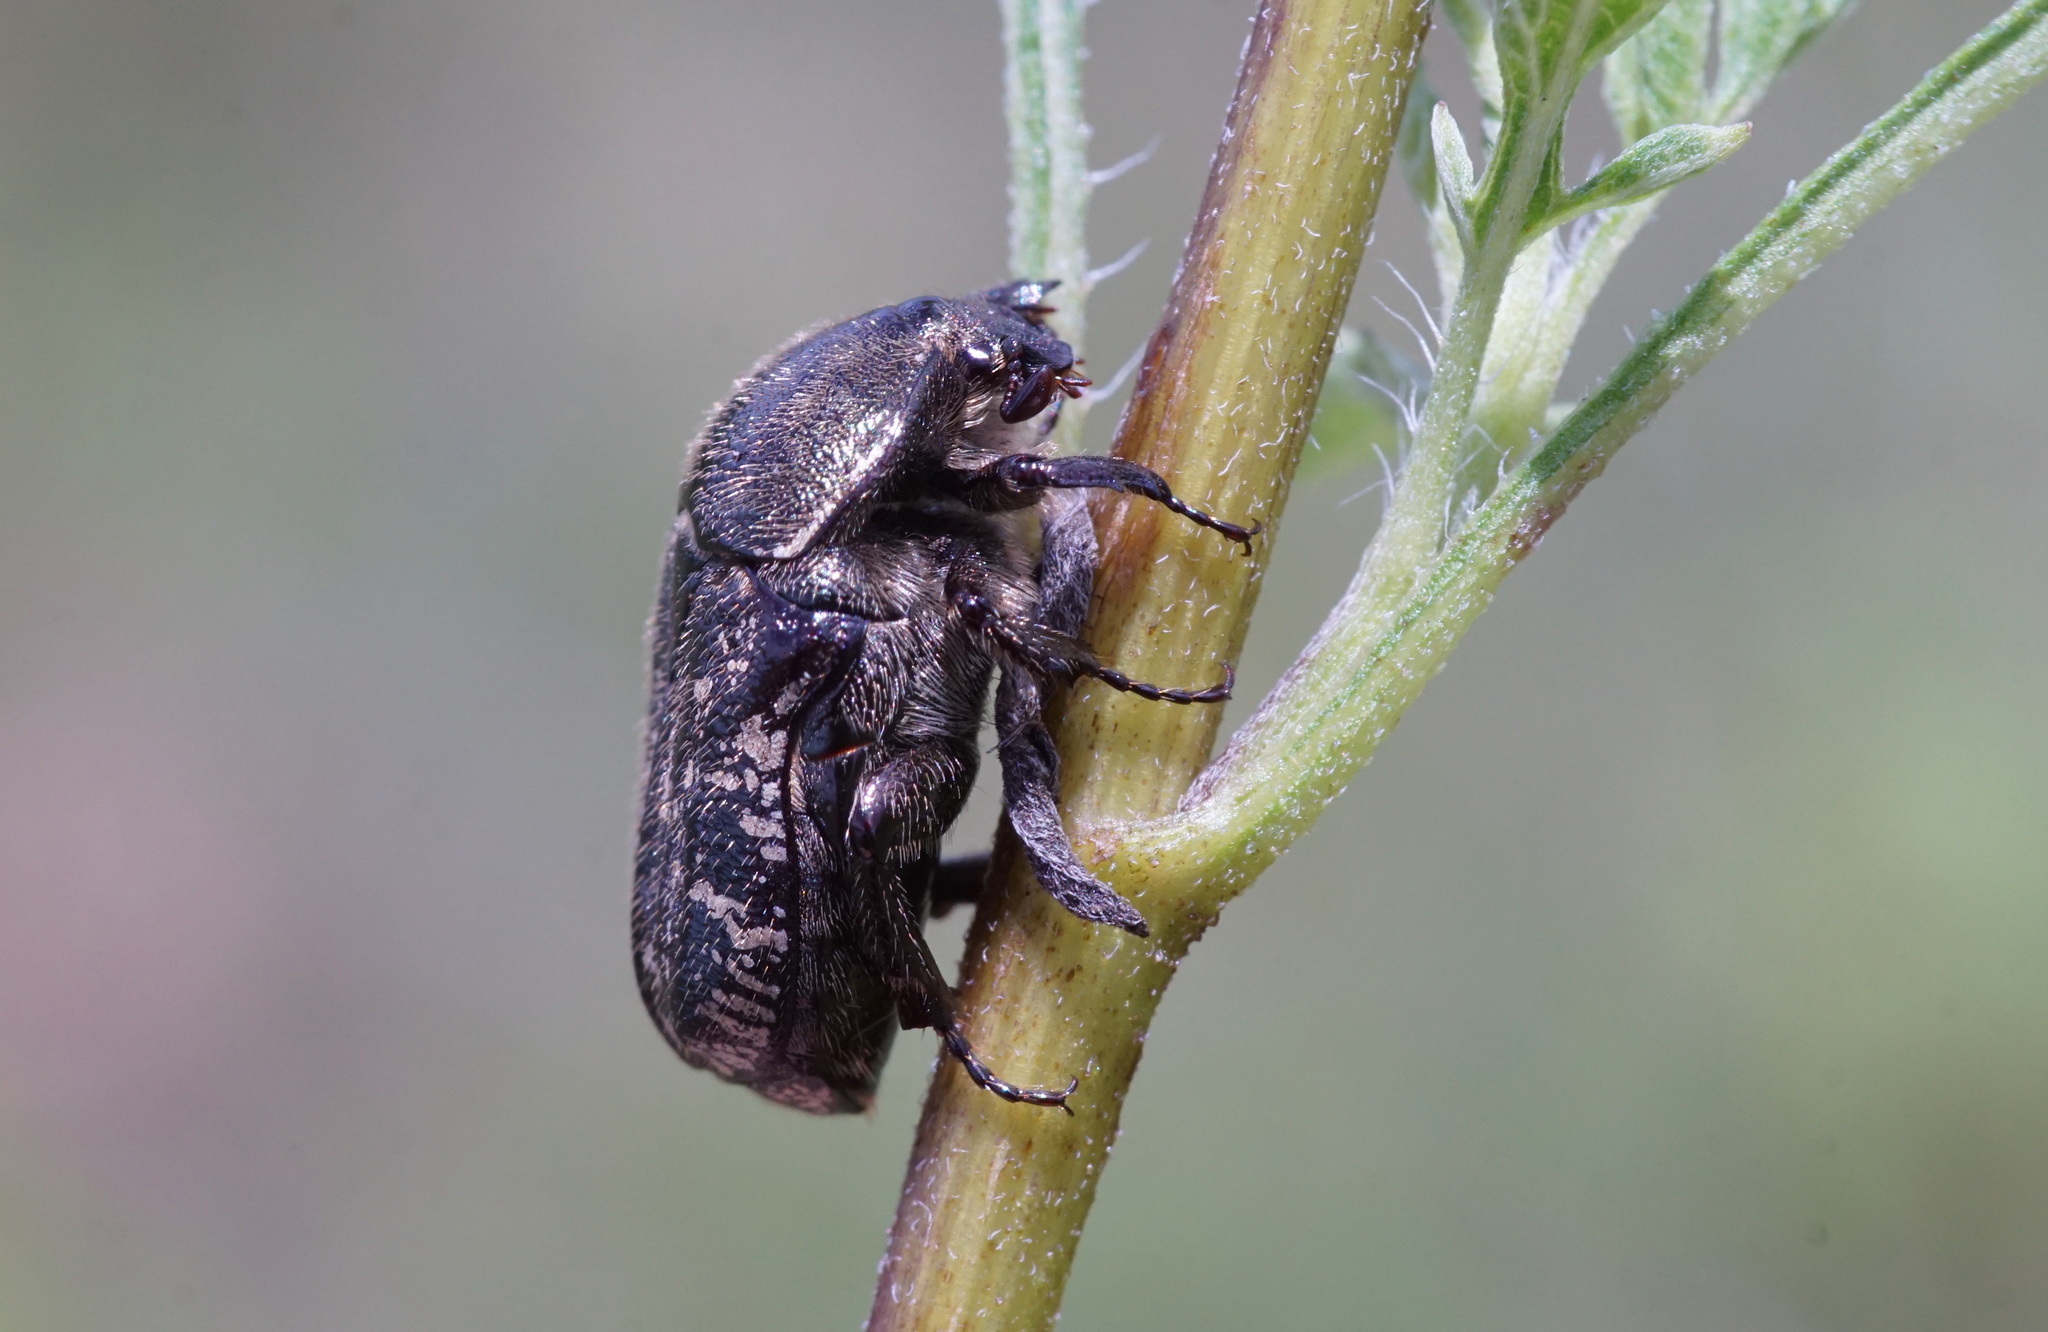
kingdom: Animalia
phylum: Arthropoda
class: Insecta
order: Coleoptera
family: Scarabaeidae
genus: Euphoria
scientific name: Euphoria sepulcralis
